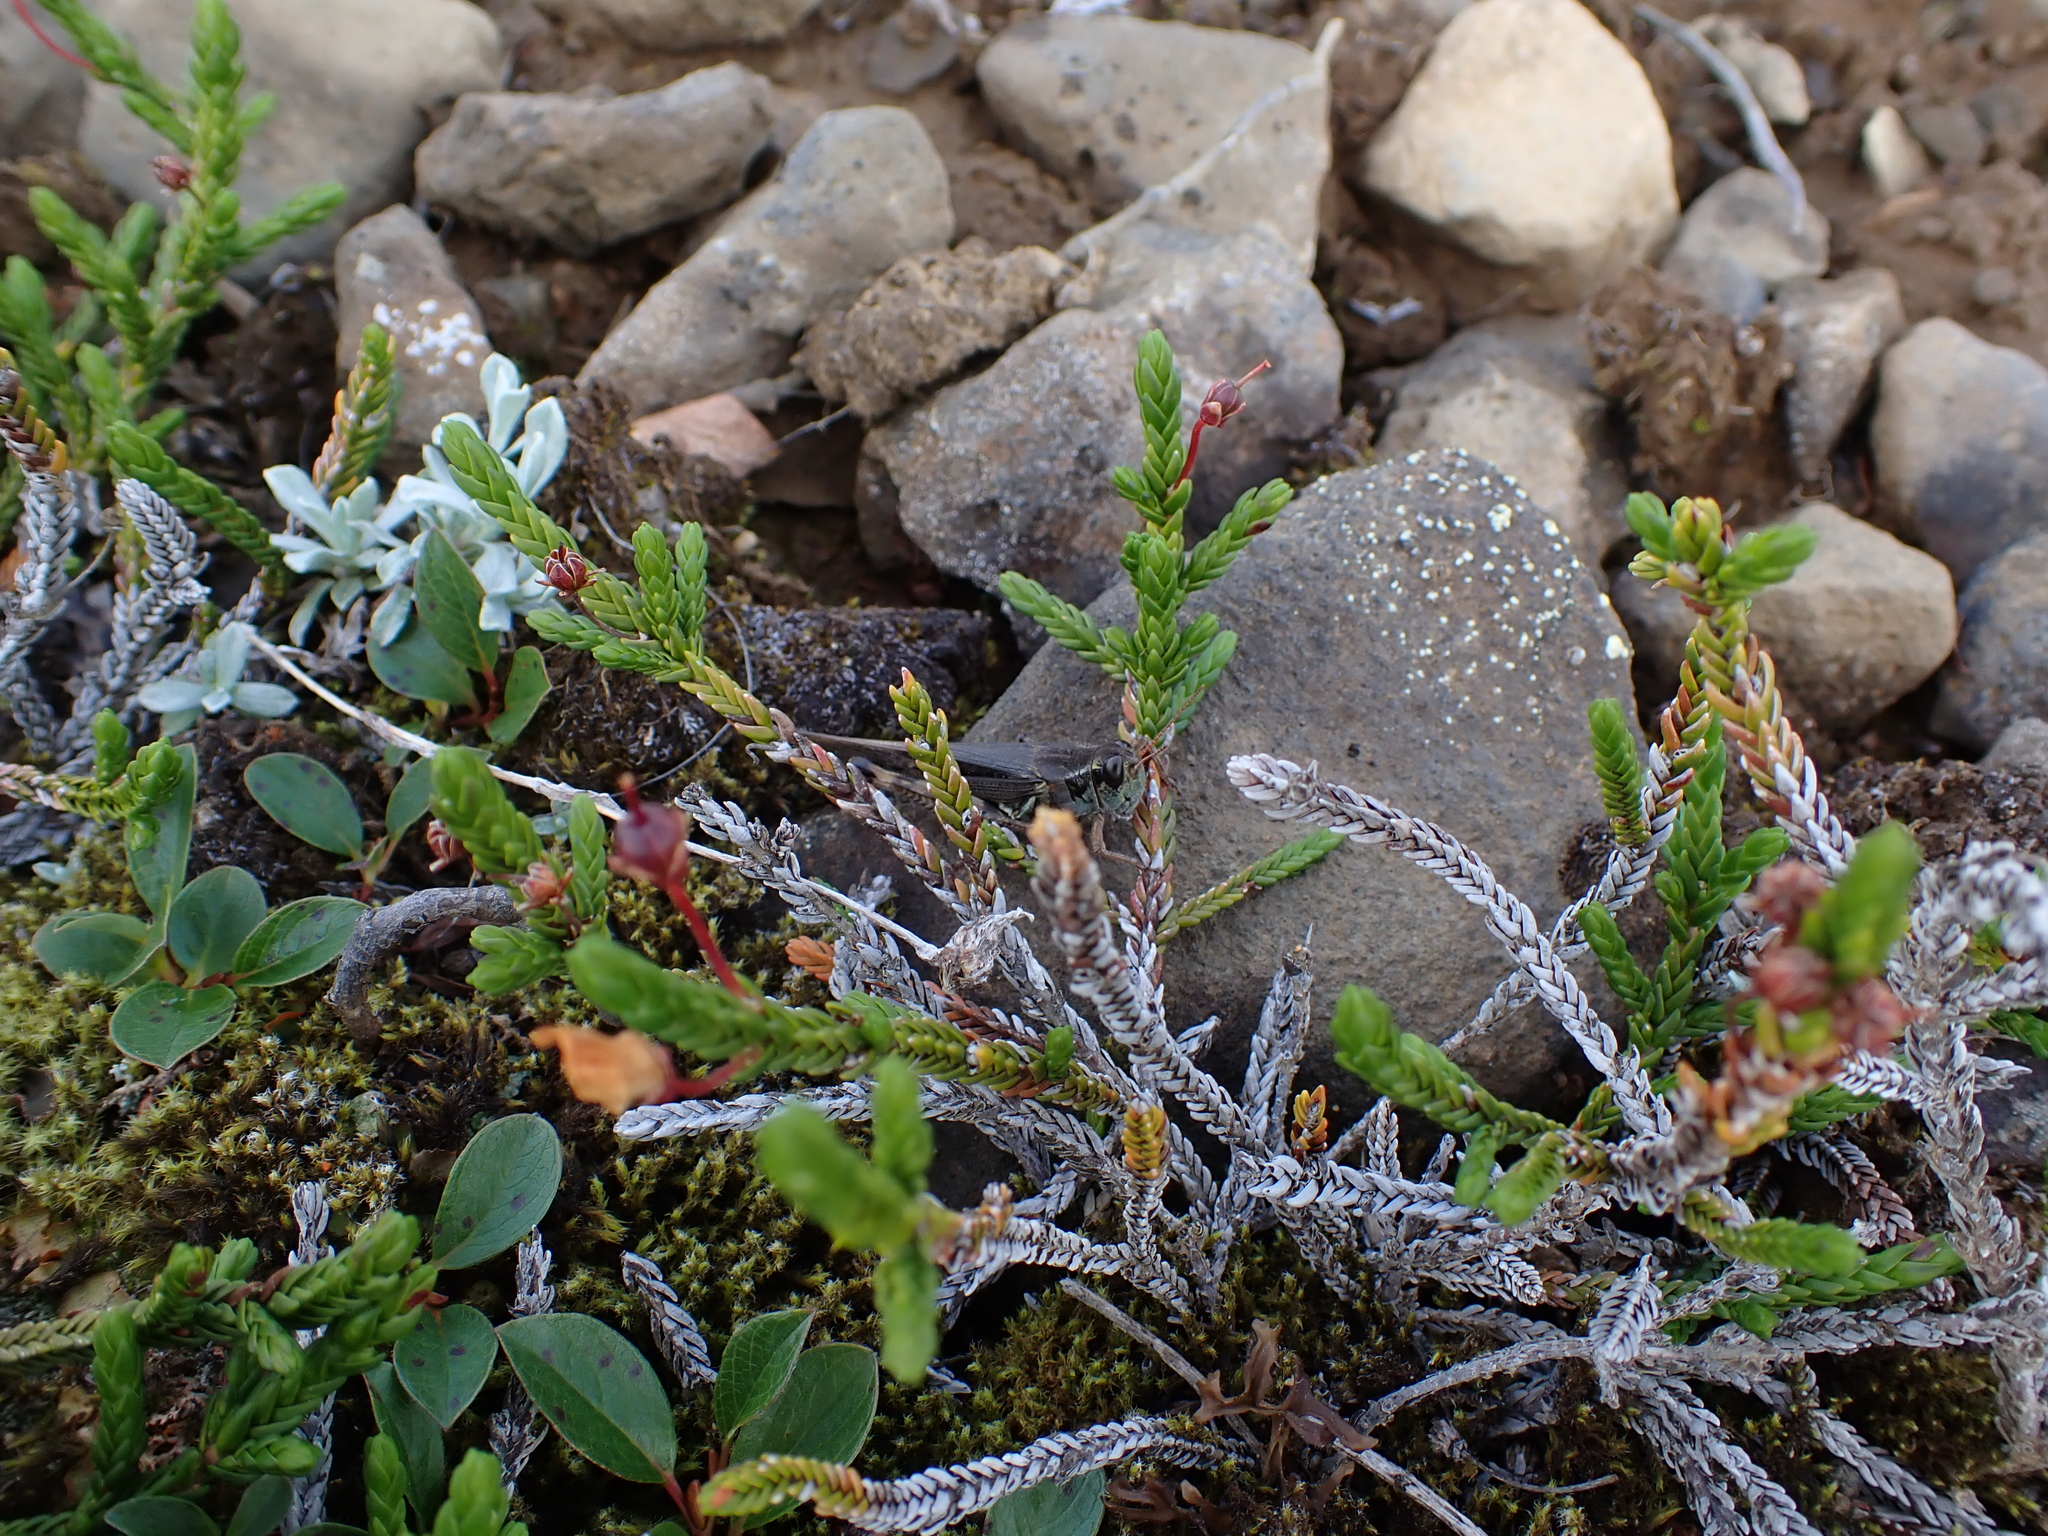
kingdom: Plantae
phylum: Tracheophyta
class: Magnoliopsida
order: Ericales
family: Ericaceae
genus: Cassiope
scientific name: Cassiope mertensiana
